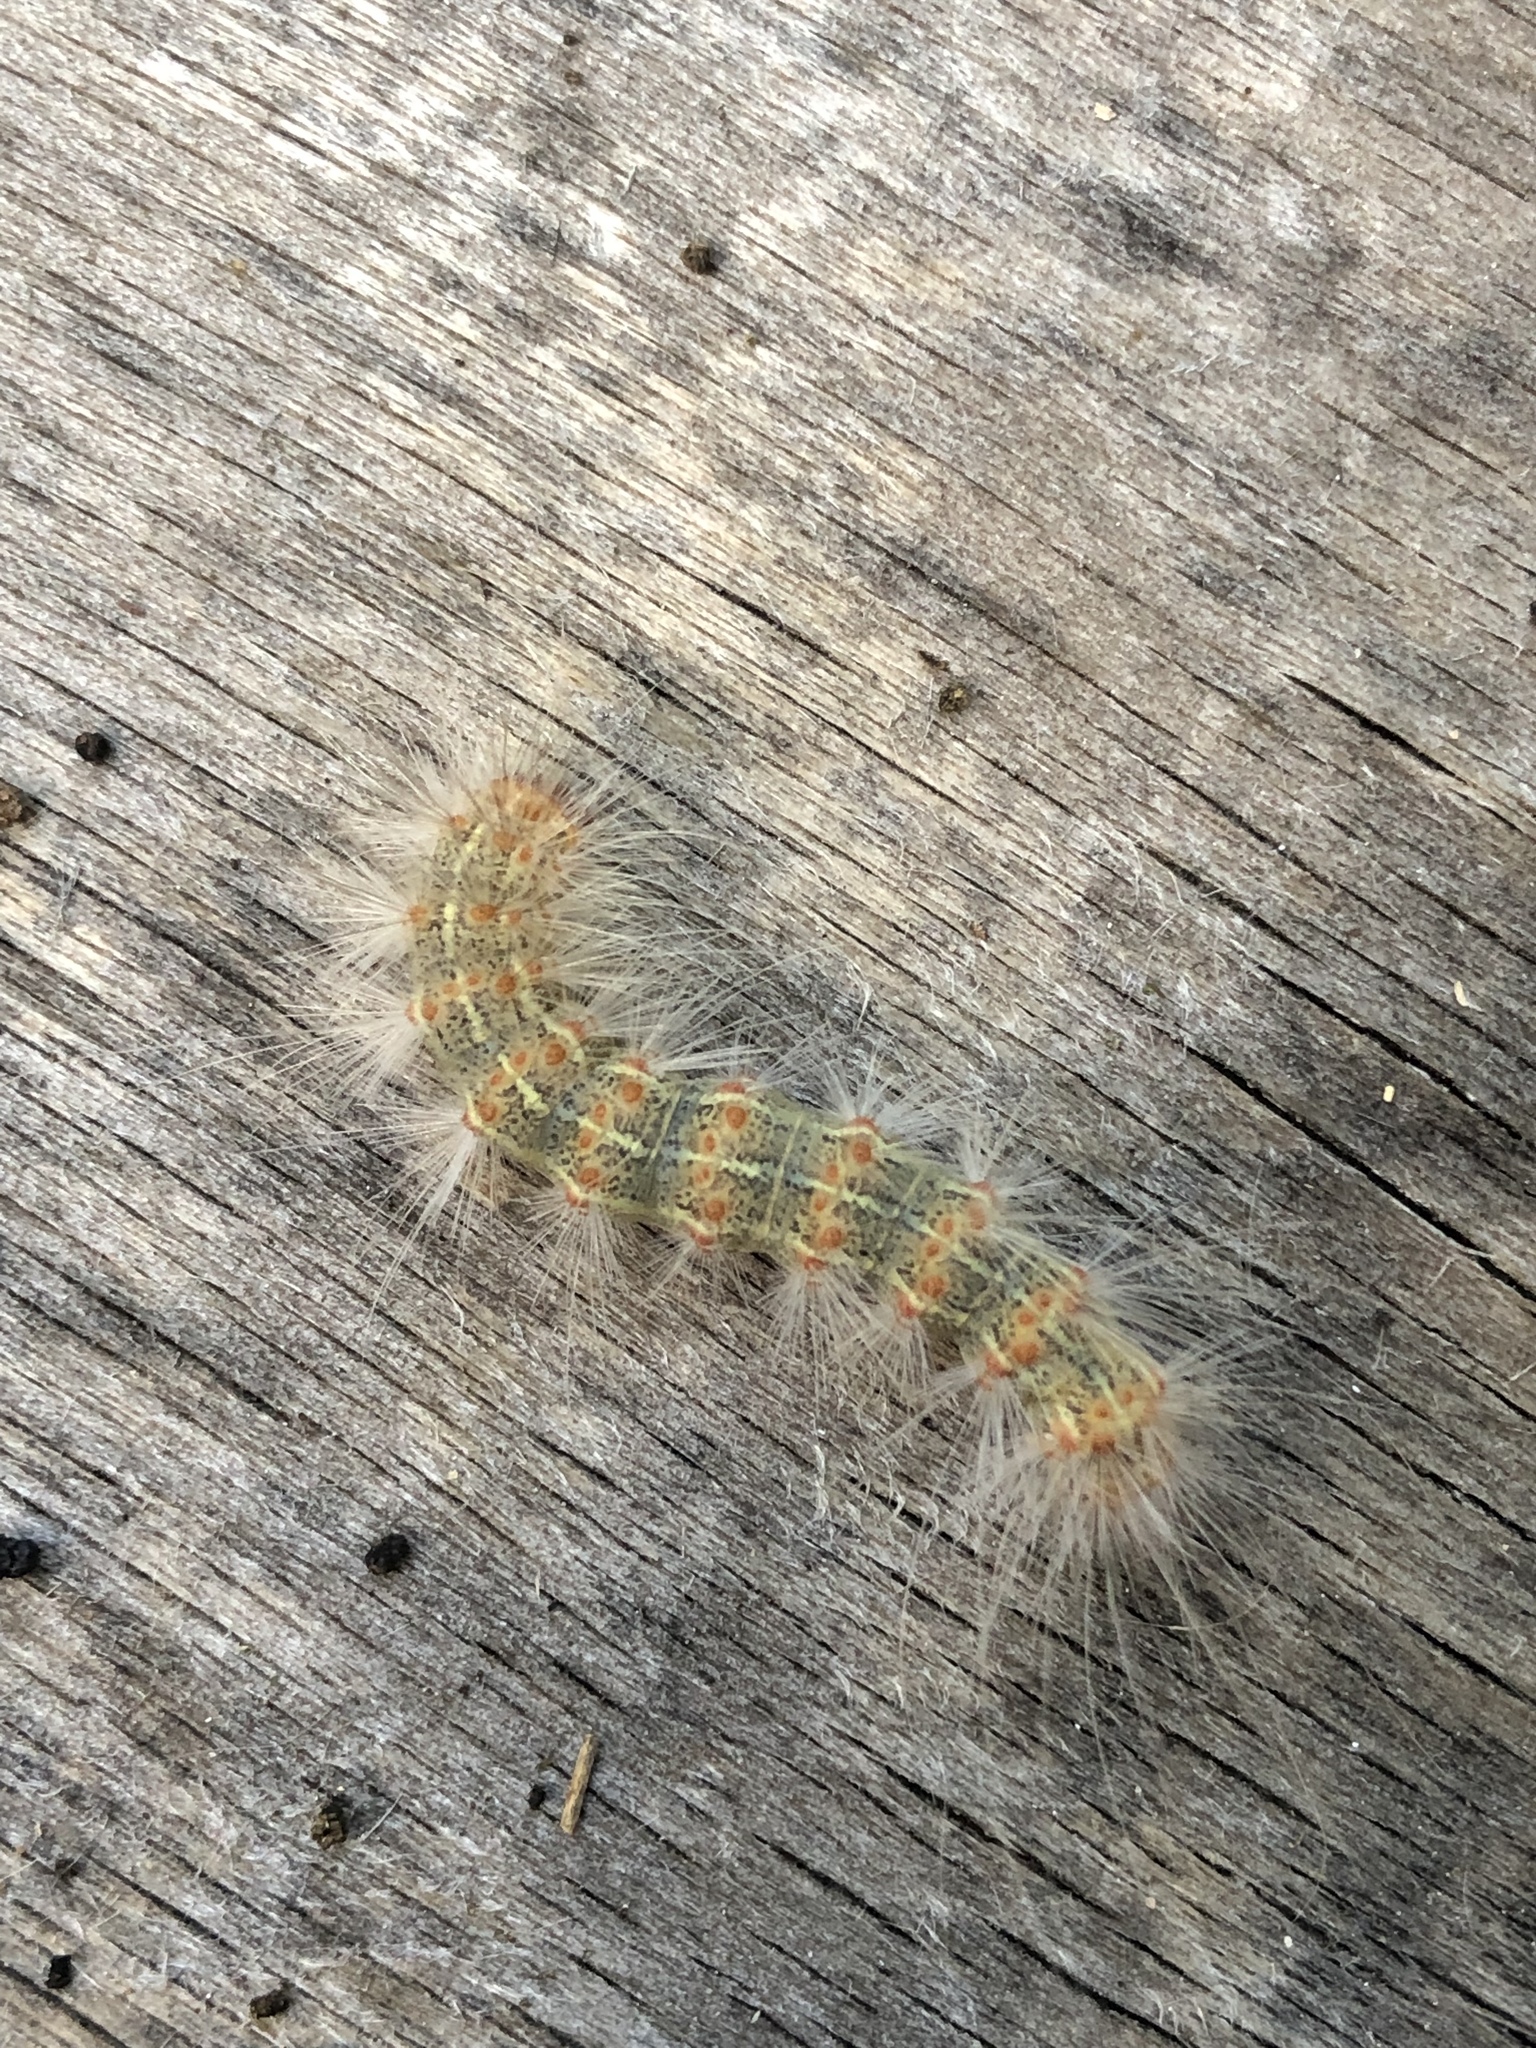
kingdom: Animalia
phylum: Arthropoda
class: Insecta
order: Lepidoptera
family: Erebidae
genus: Hyphantria
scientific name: Hyphantria cunea
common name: American white moth
